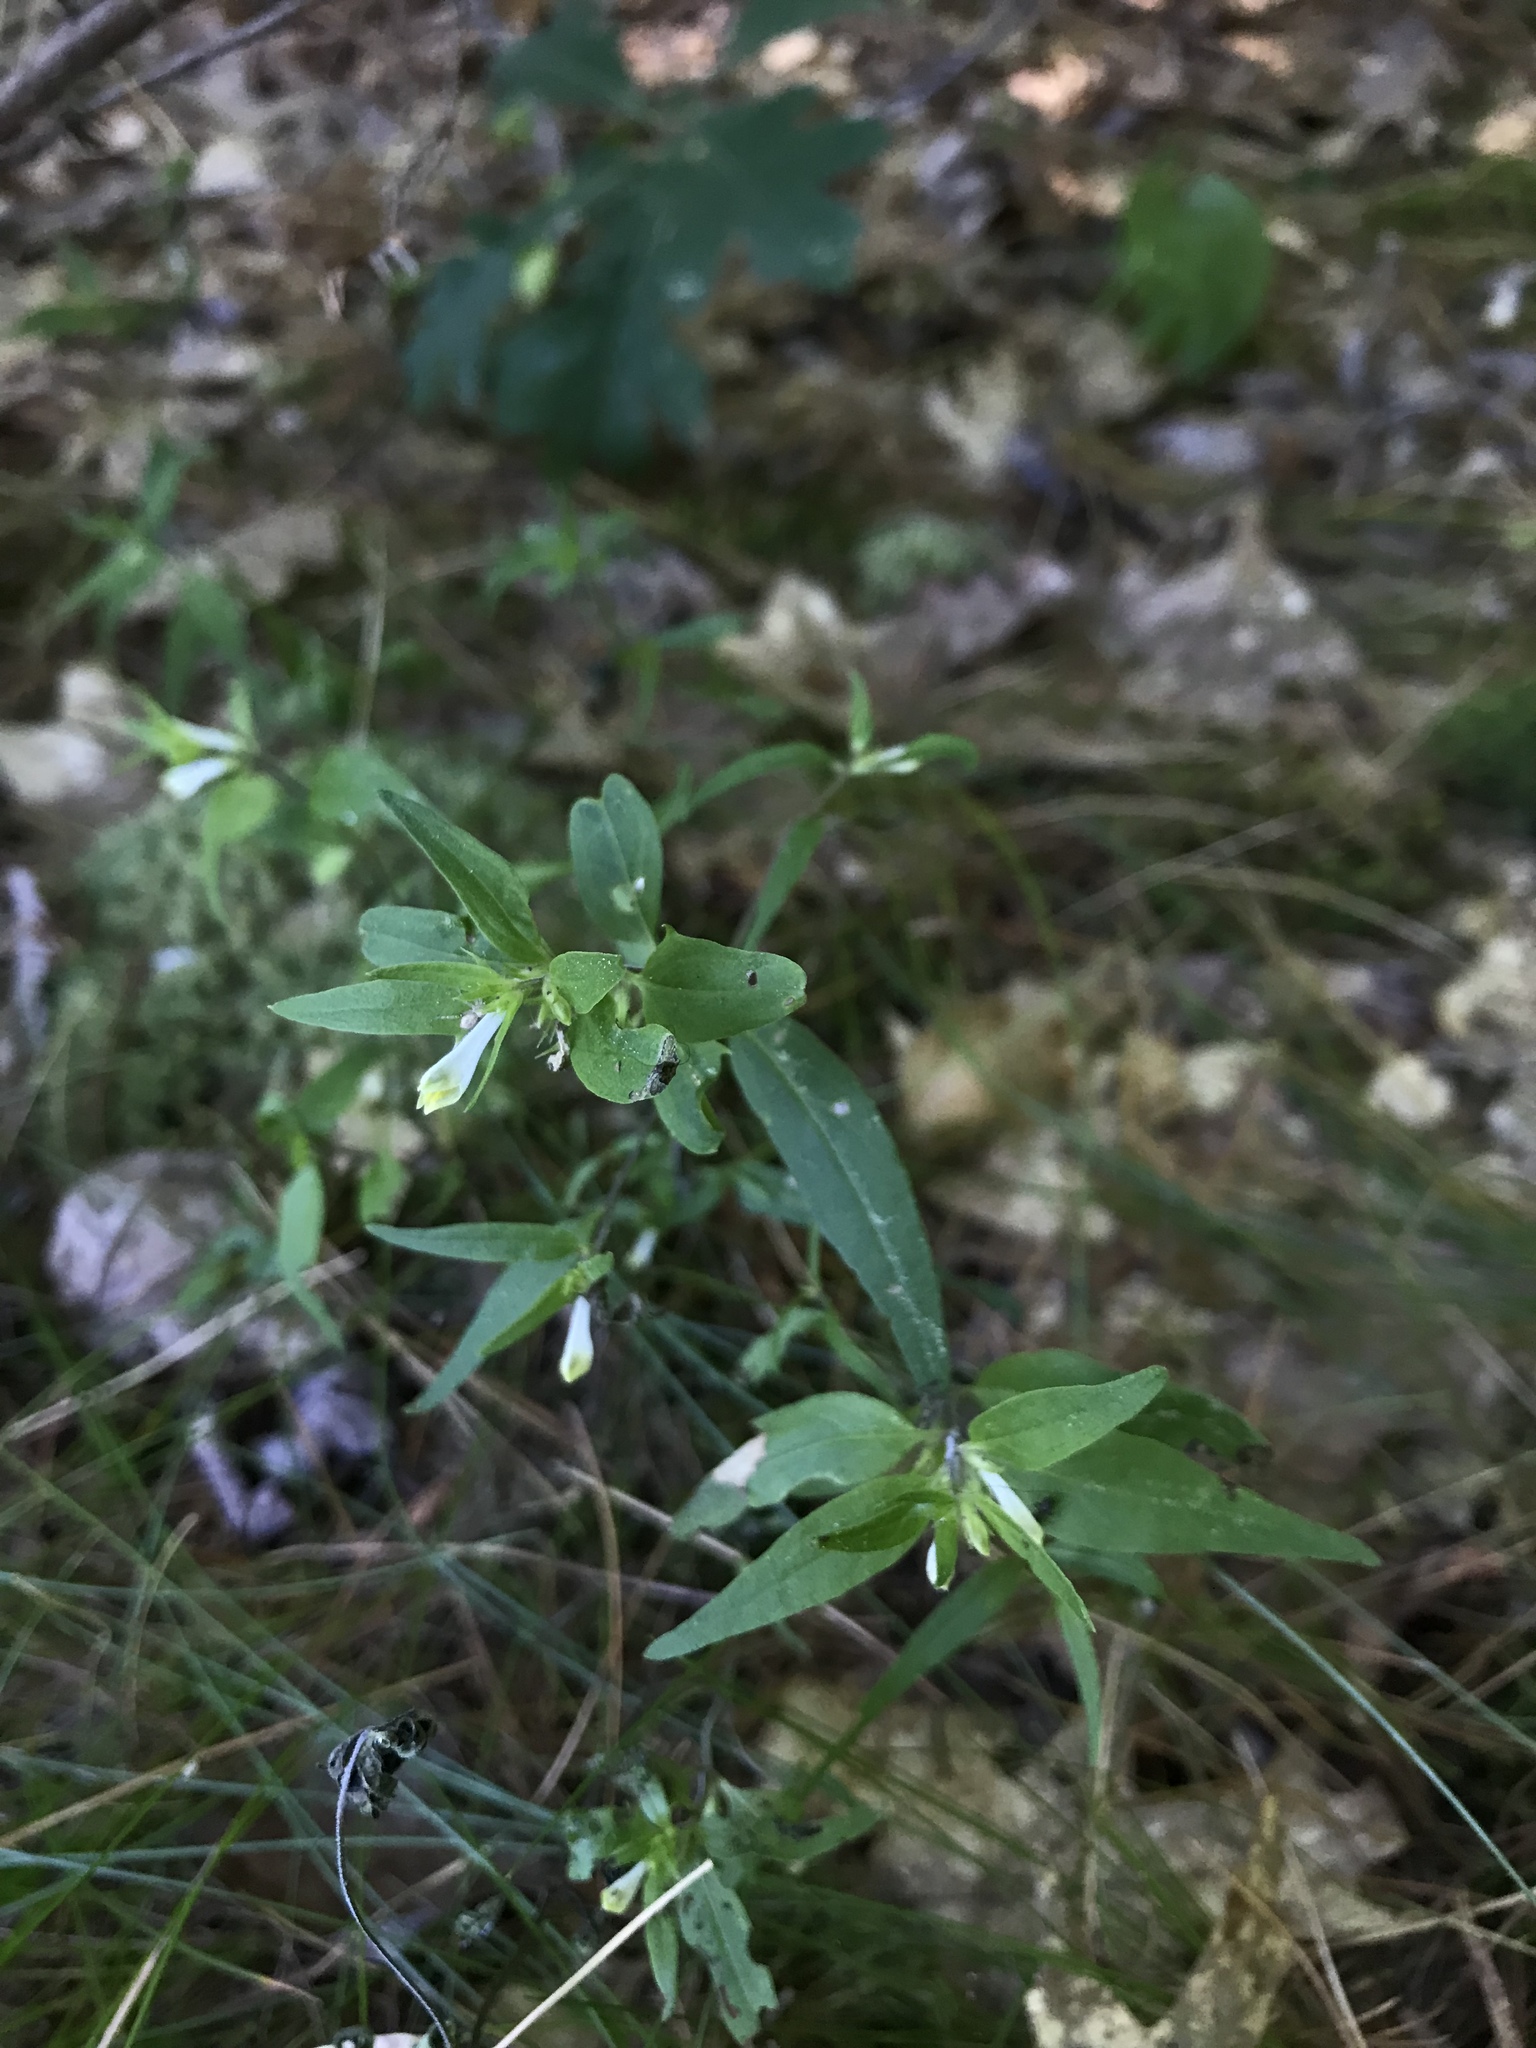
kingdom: Plantae
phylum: Tracheophyta
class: Magnoliopsida
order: Lamiales
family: Orobanchaceae
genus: Melampyrum
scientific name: Melampyrum lineare
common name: American cow-wheat
